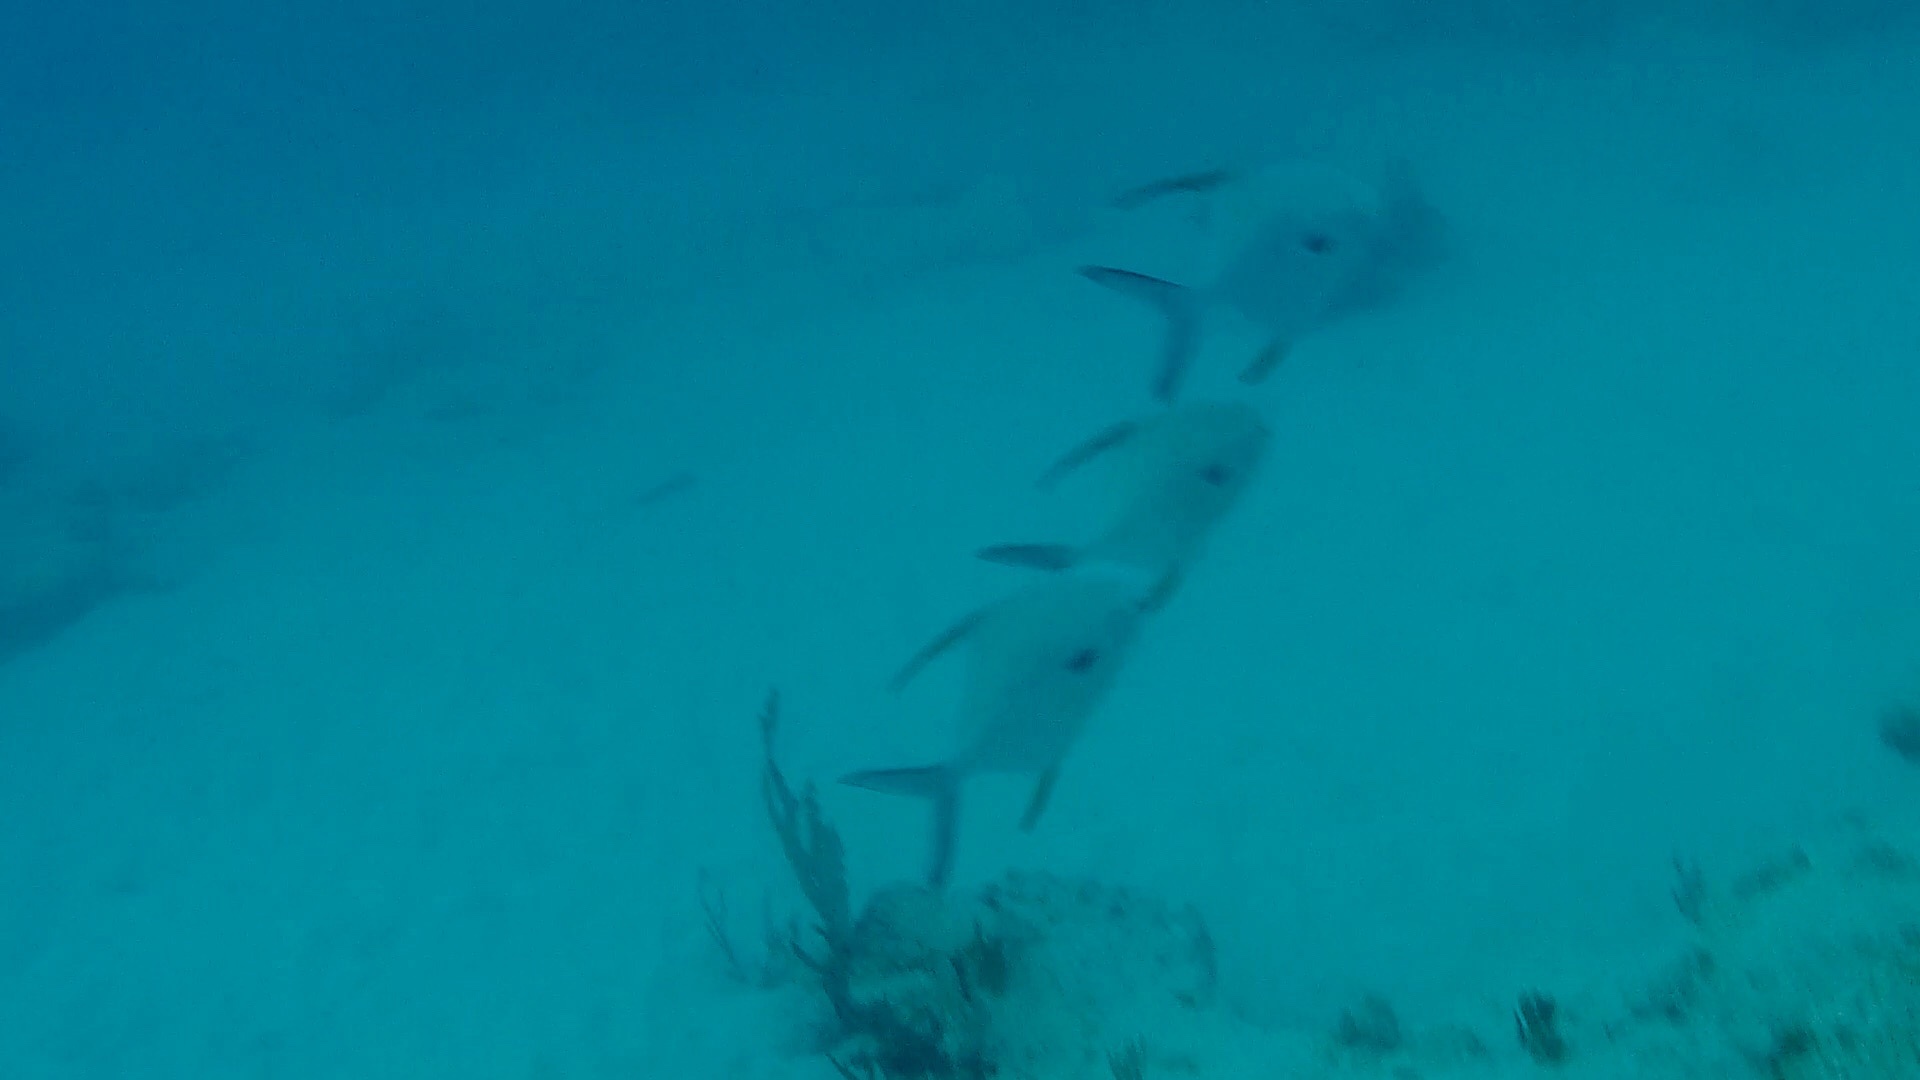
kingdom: Animalia
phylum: Chordata
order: Perciformes
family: Carangidae
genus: Trachinotus
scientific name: Trachinotus goodei
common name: Palometa
